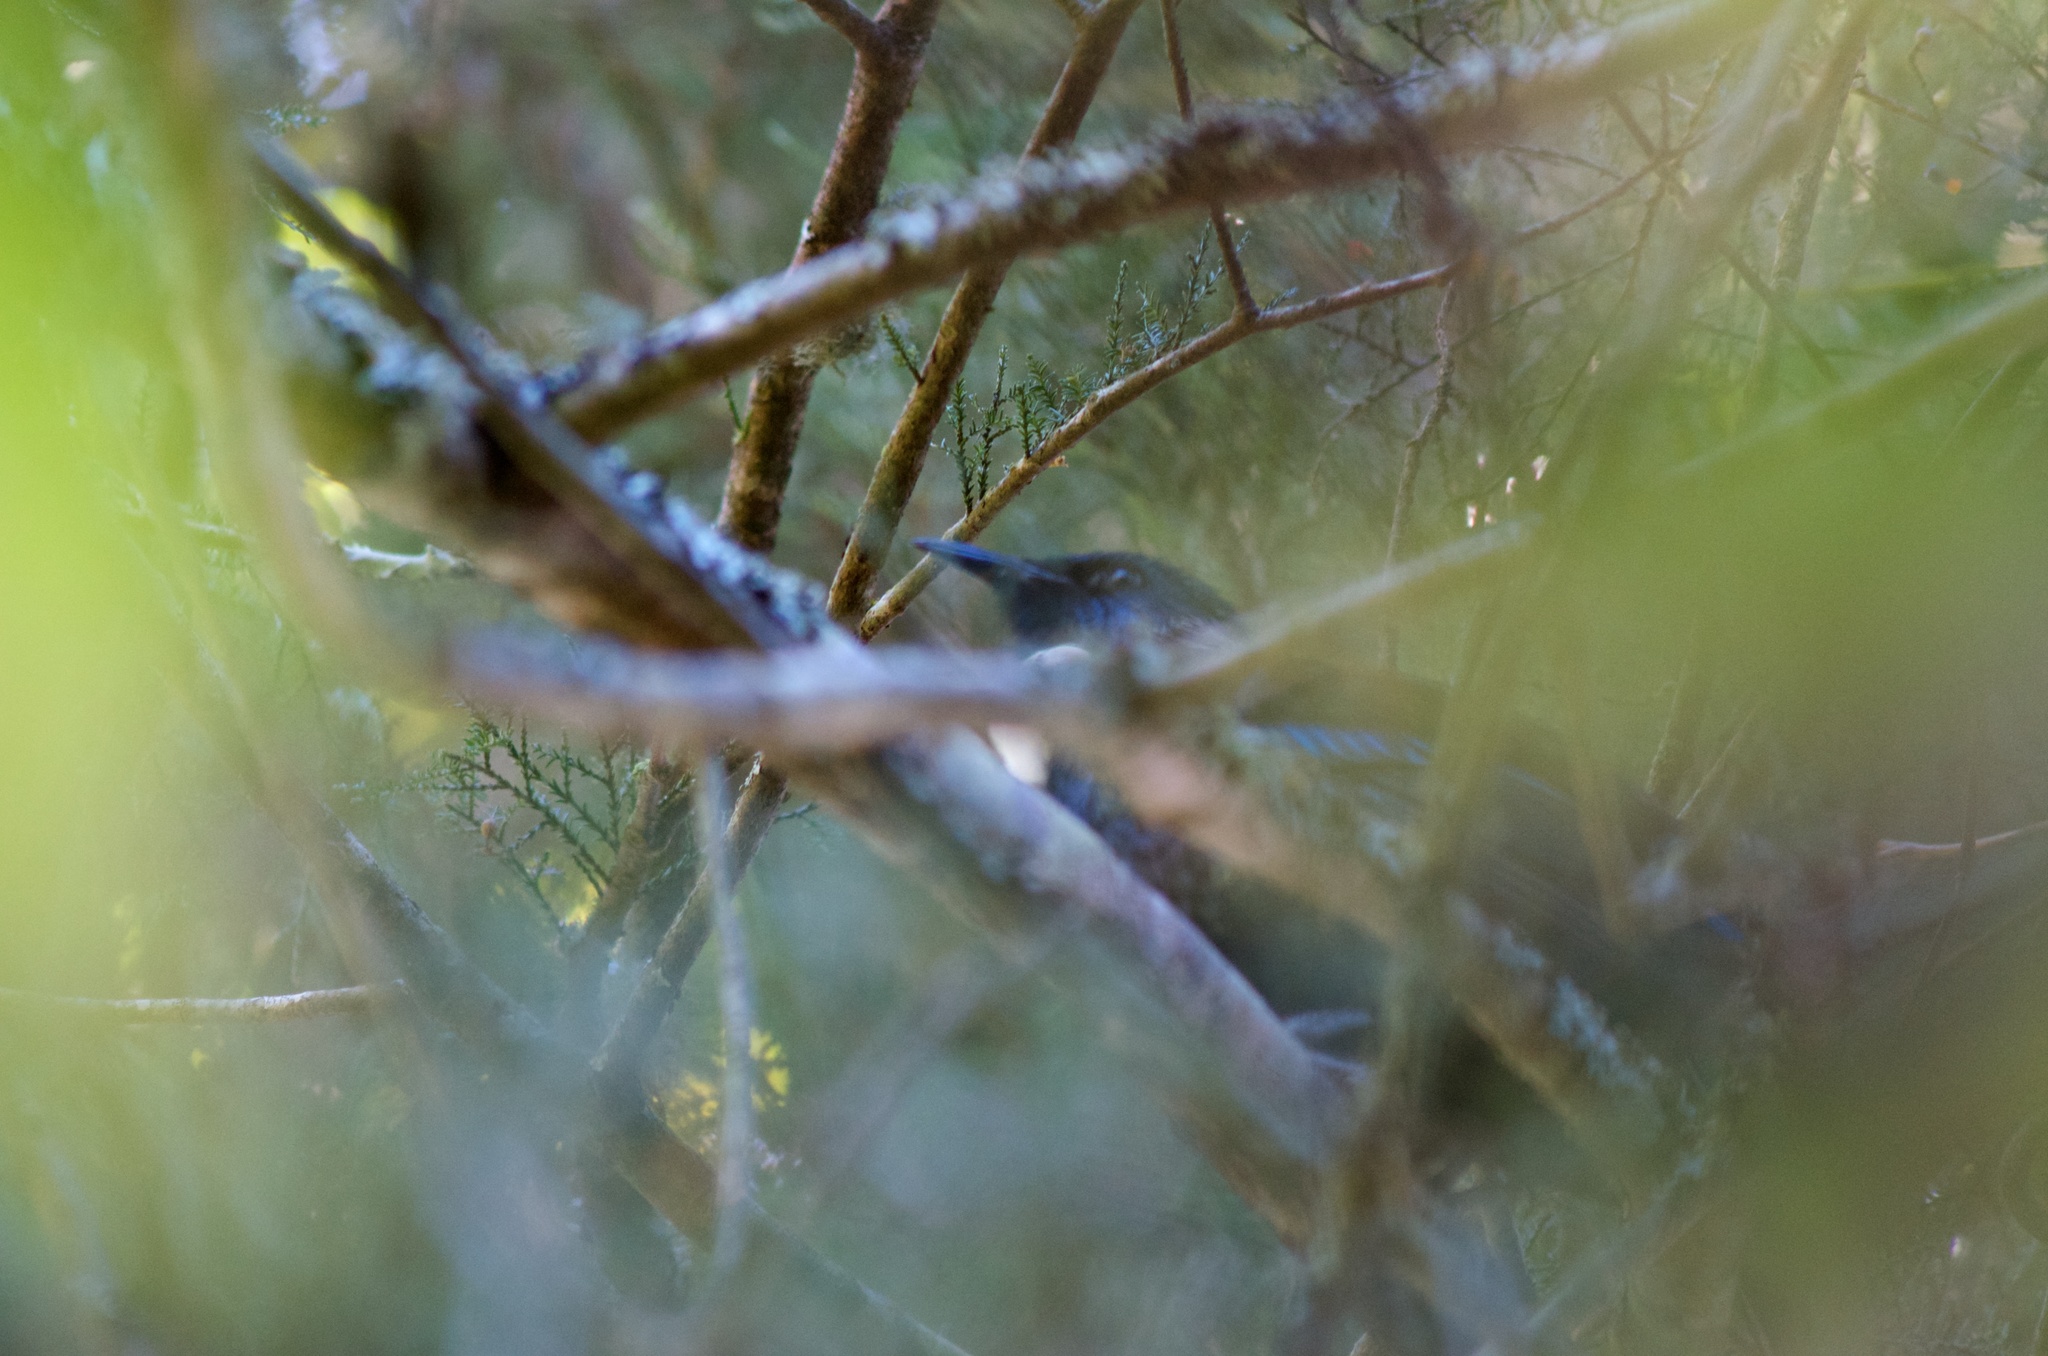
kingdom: Animalia
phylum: Chordata
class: Aves
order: Passeriformes
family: Meliphagidae
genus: Prosthemadera
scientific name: Prosthemadera novaeseelandiae
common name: Tui
